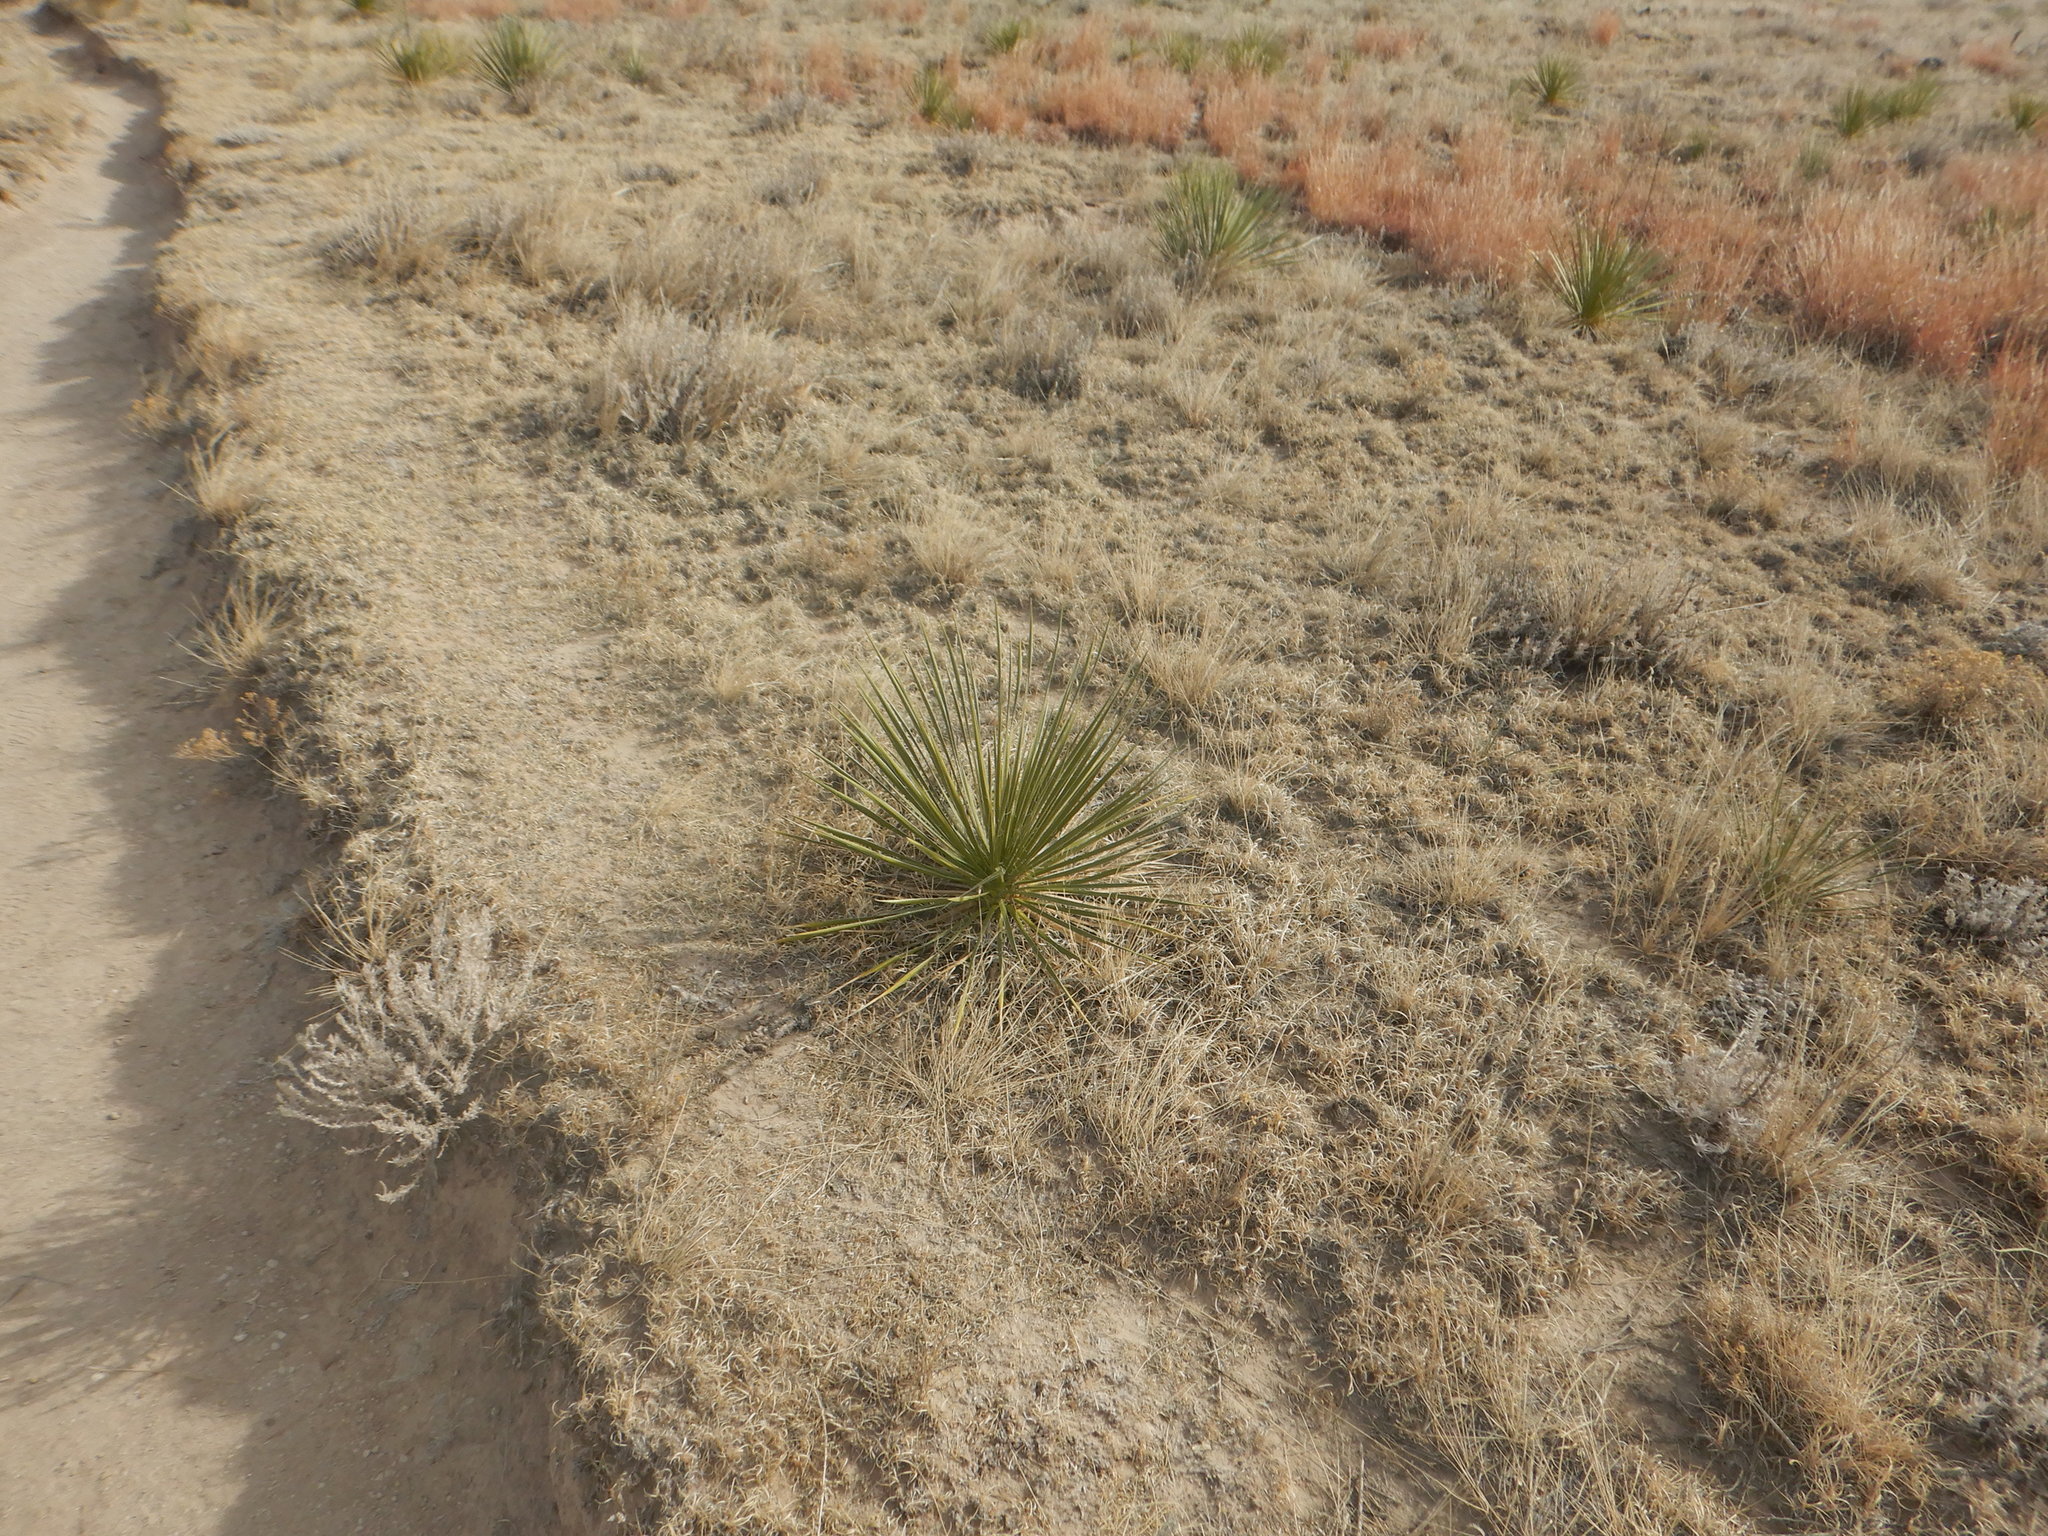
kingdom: Plantae
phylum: Tracheophyta
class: Liliopsida
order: Asparagales
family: Asparagaceae
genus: Yucca
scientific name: Yucca glauca
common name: Great plains yucca
